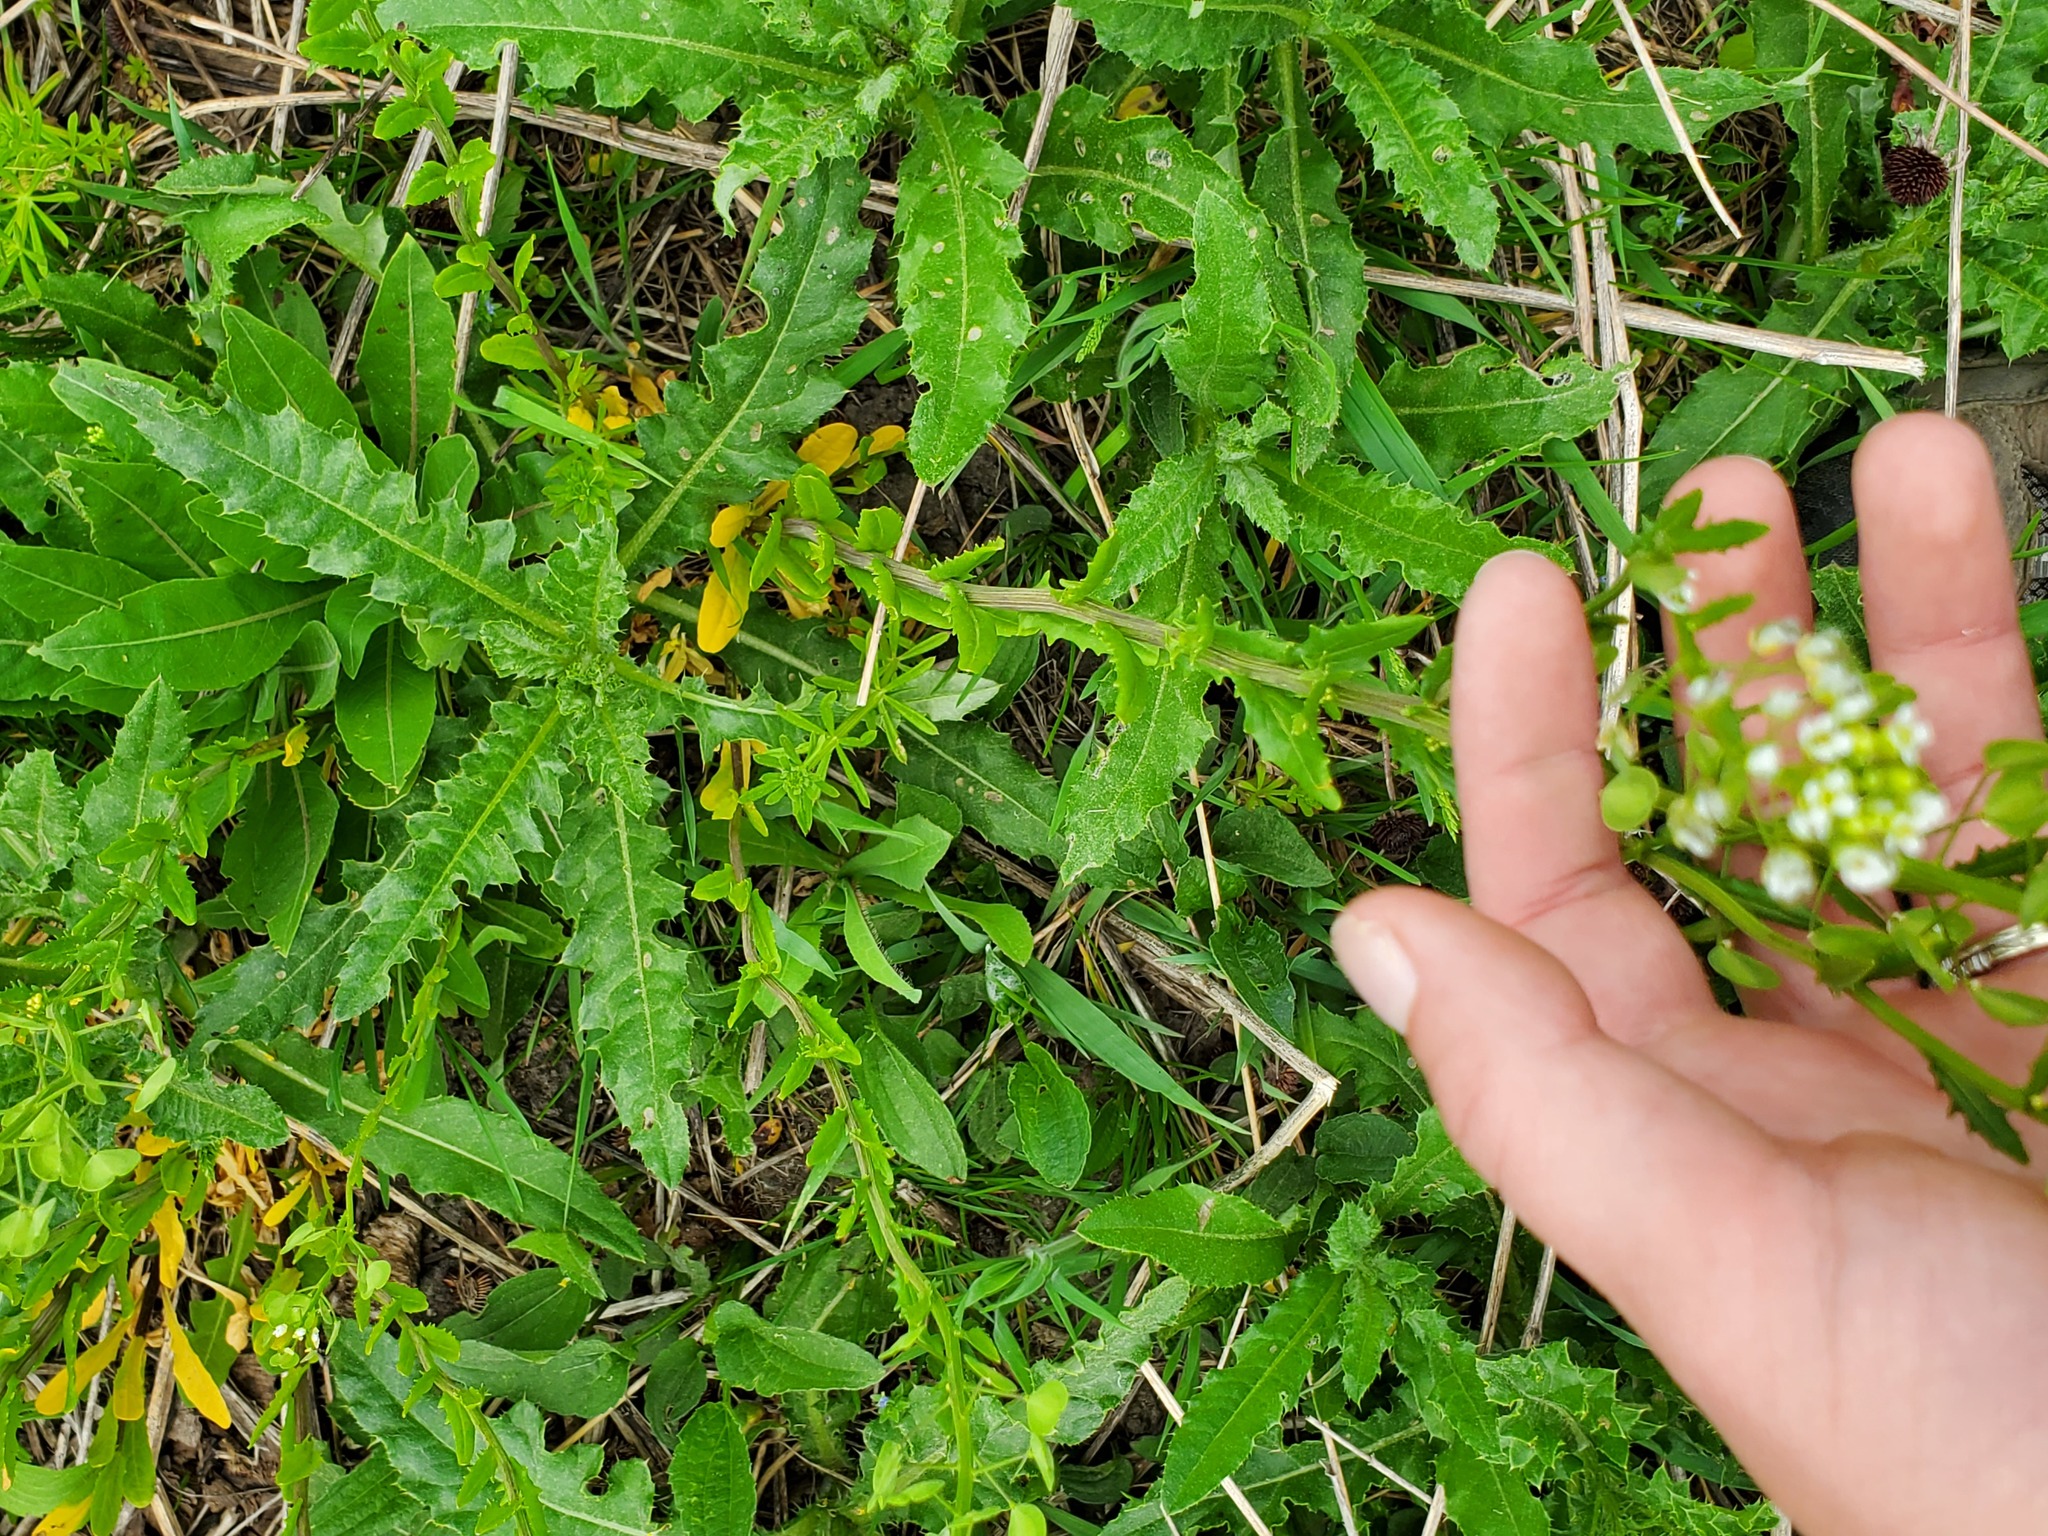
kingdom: Plantae
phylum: Tracheophyta
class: Magnoliopsida
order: Brassicales
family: Brassicaceae
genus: Thlaspi
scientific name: Thlaspi arvense
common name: Field pennycress
